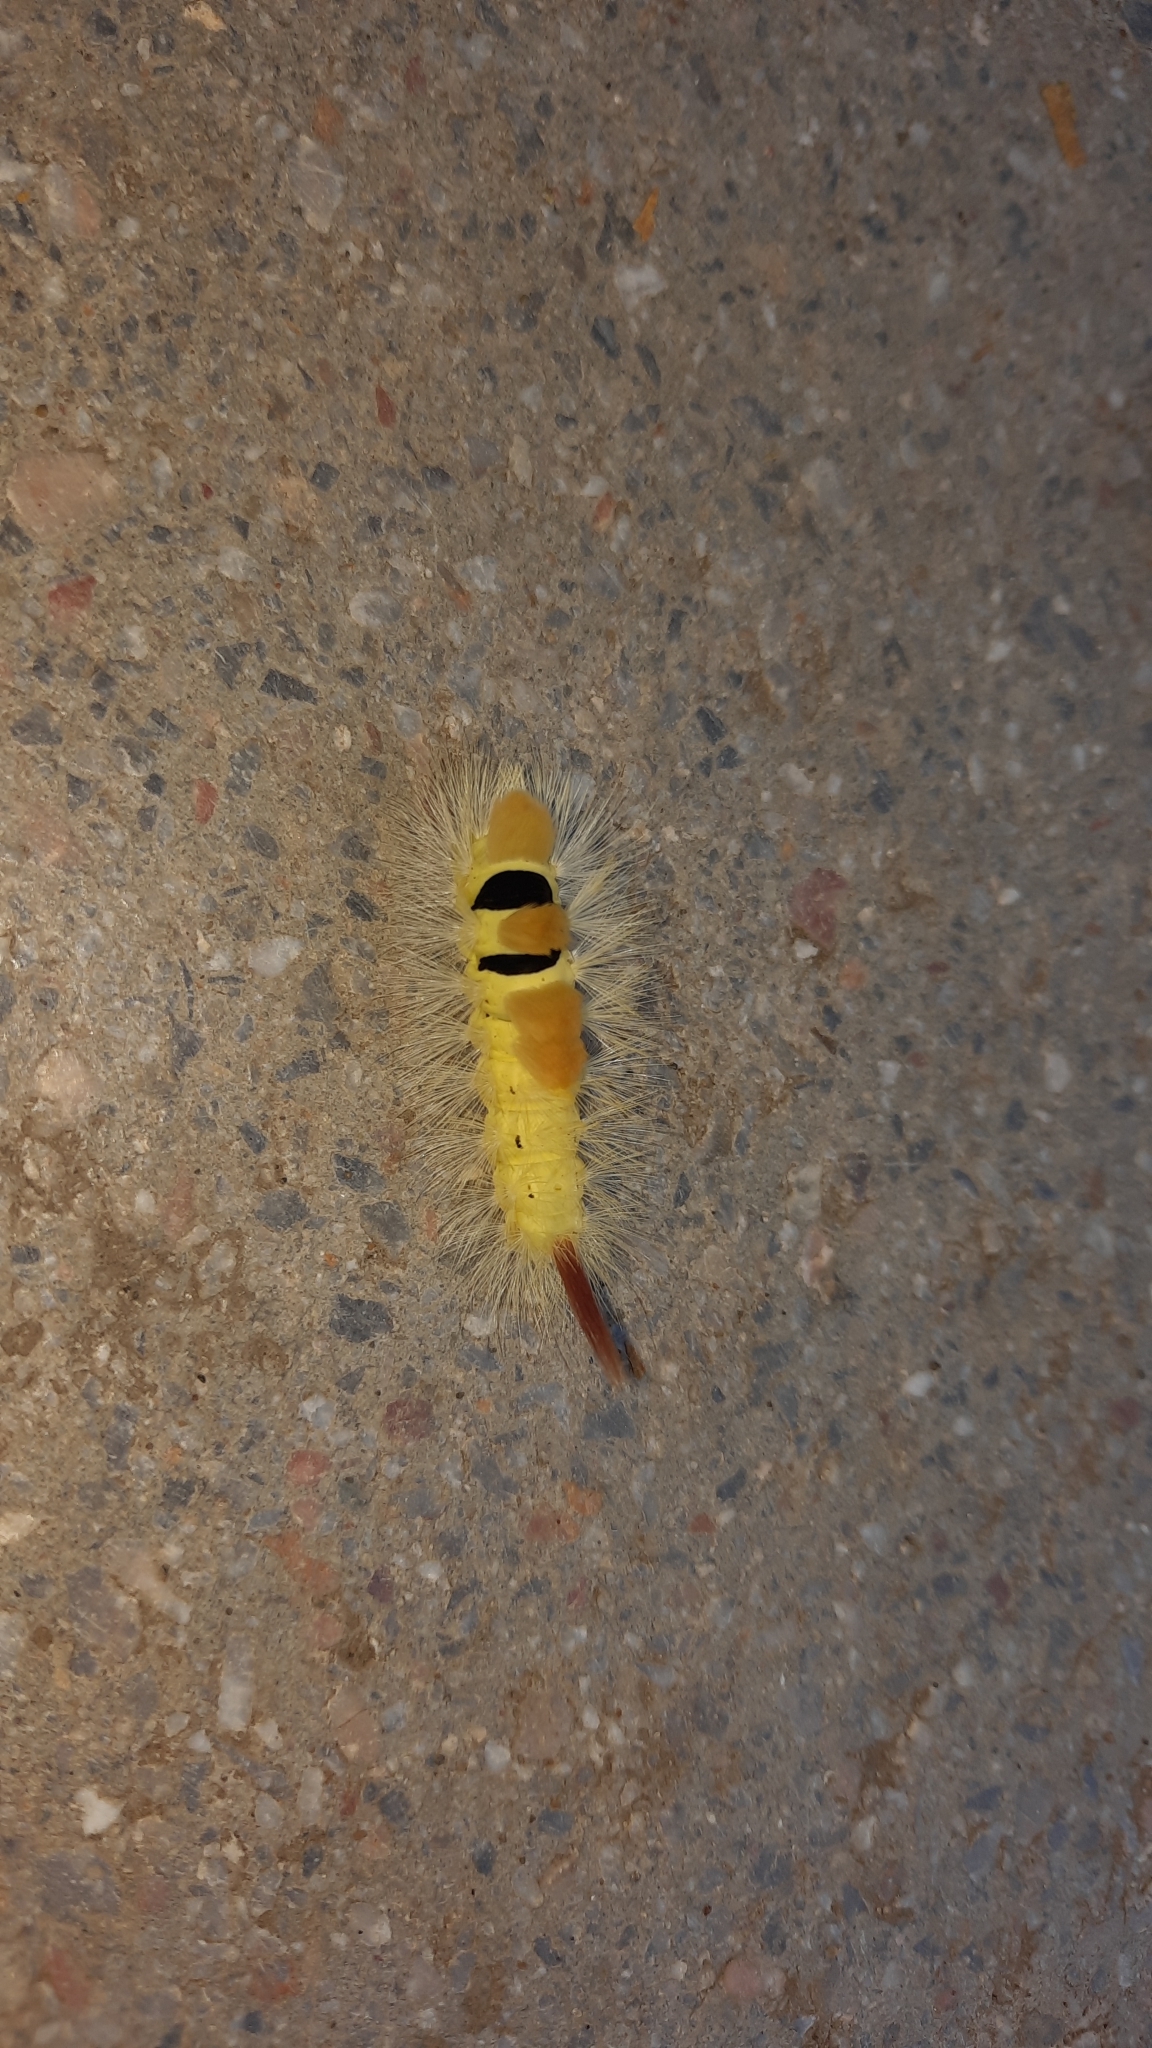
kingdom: Animalia
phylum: Arthropoda
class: Insecta
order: Lepidoptera
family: Erebidae
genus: Calliteara
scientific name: Calliteara pudibunda
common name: Pale tussock
